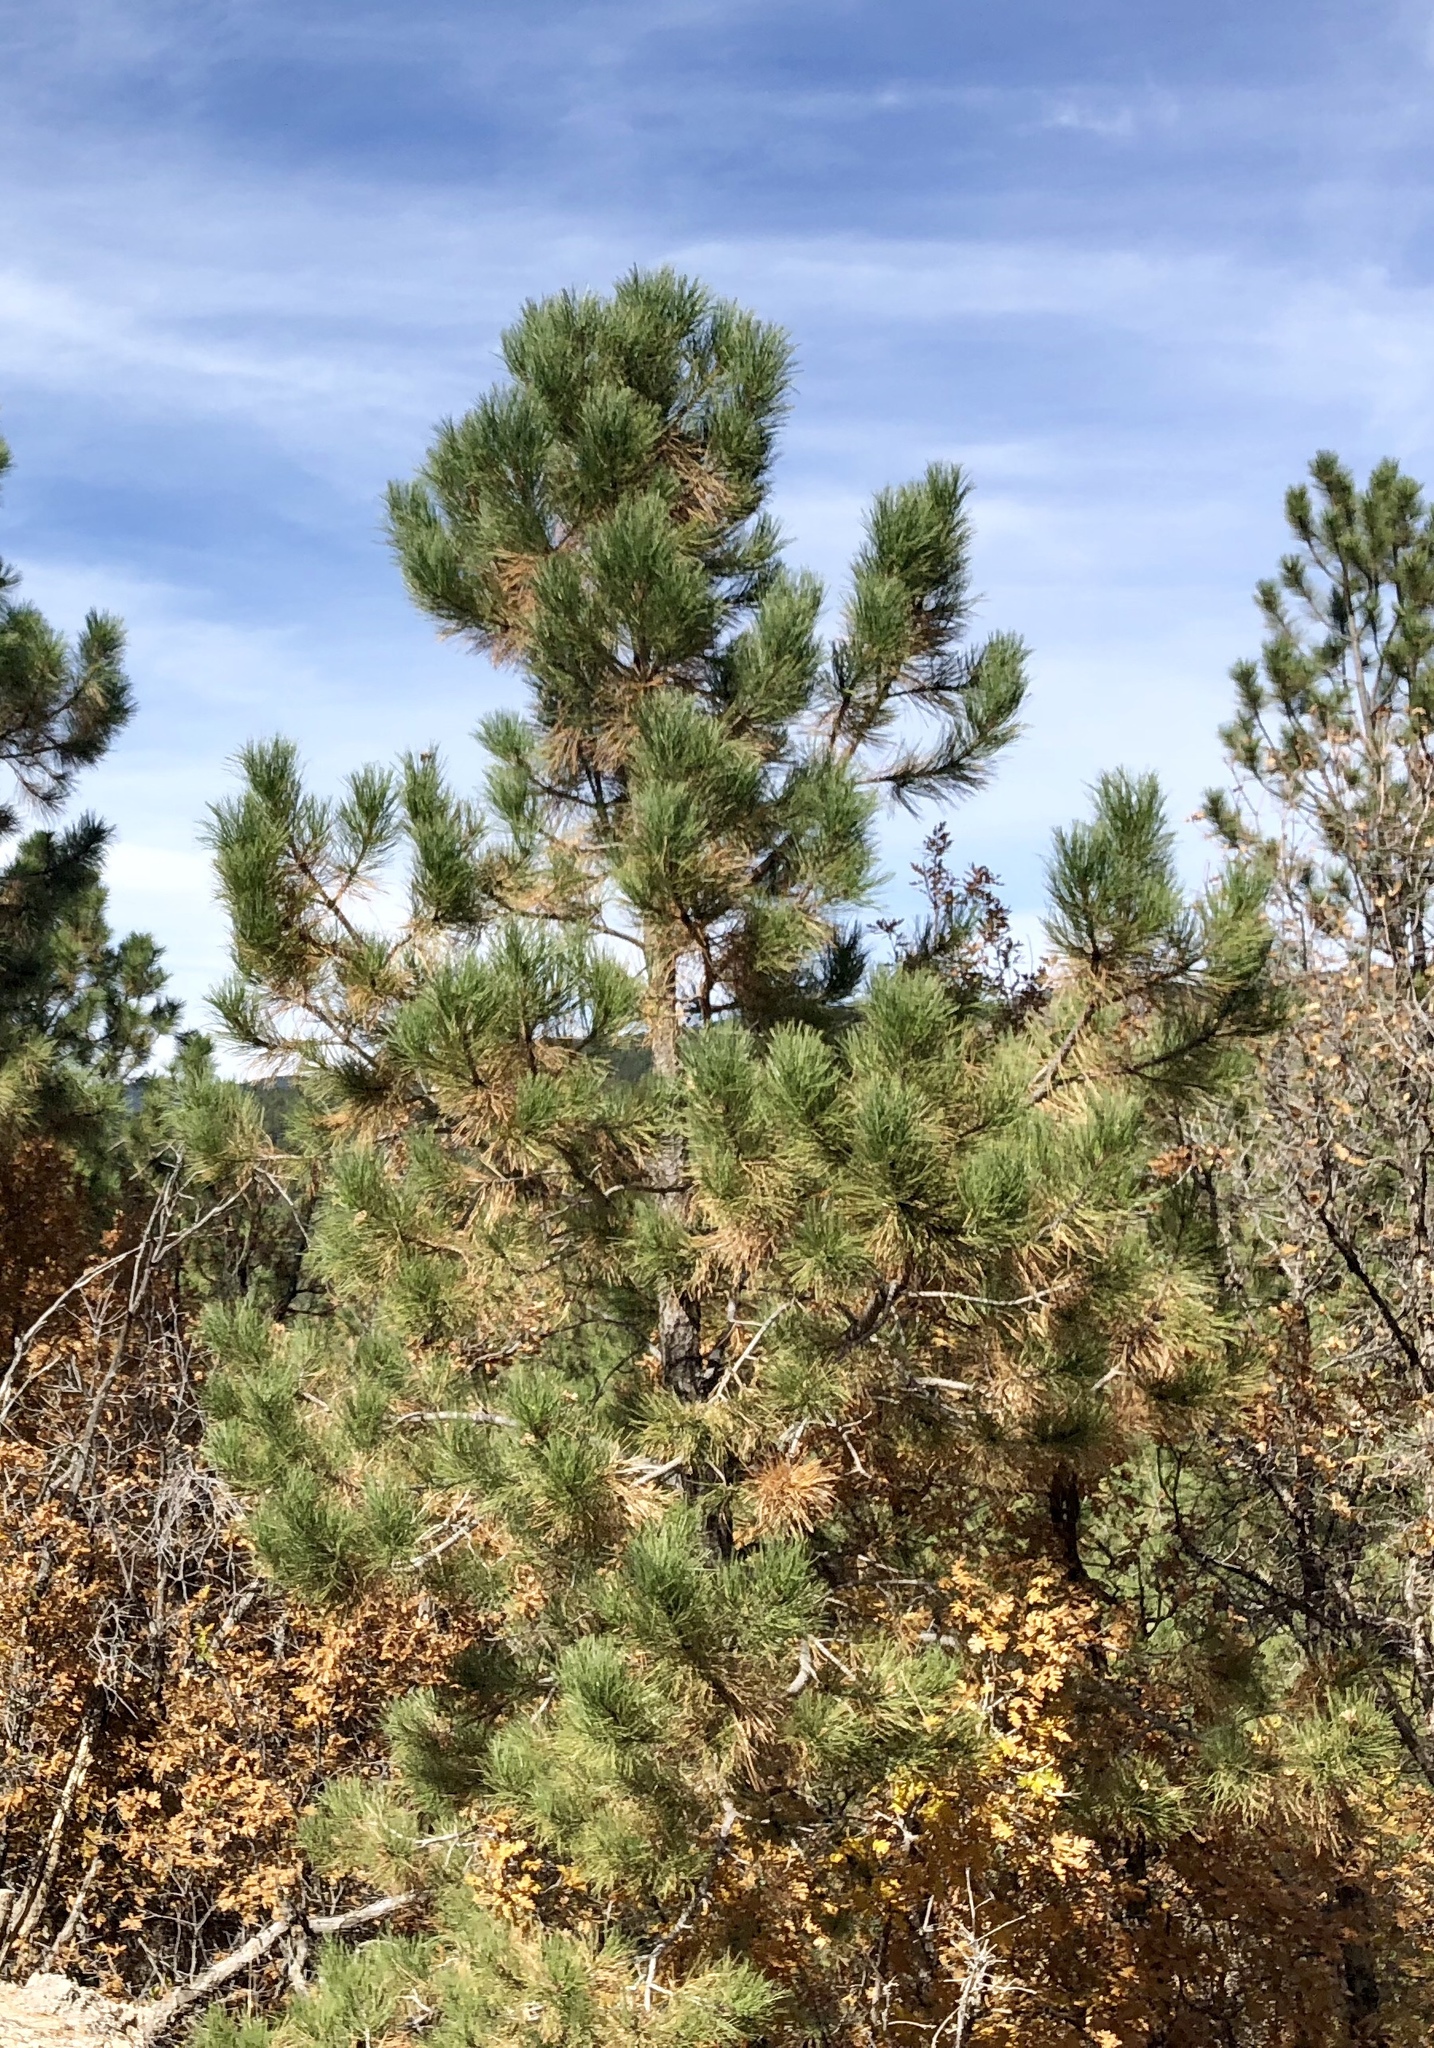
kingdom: Plantae
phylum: Tracheophyta
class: Pinopsida
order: Pinales
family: Pinaceae
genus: Pinus
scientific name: Pinus ponderosa
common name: Western yellow-pine
